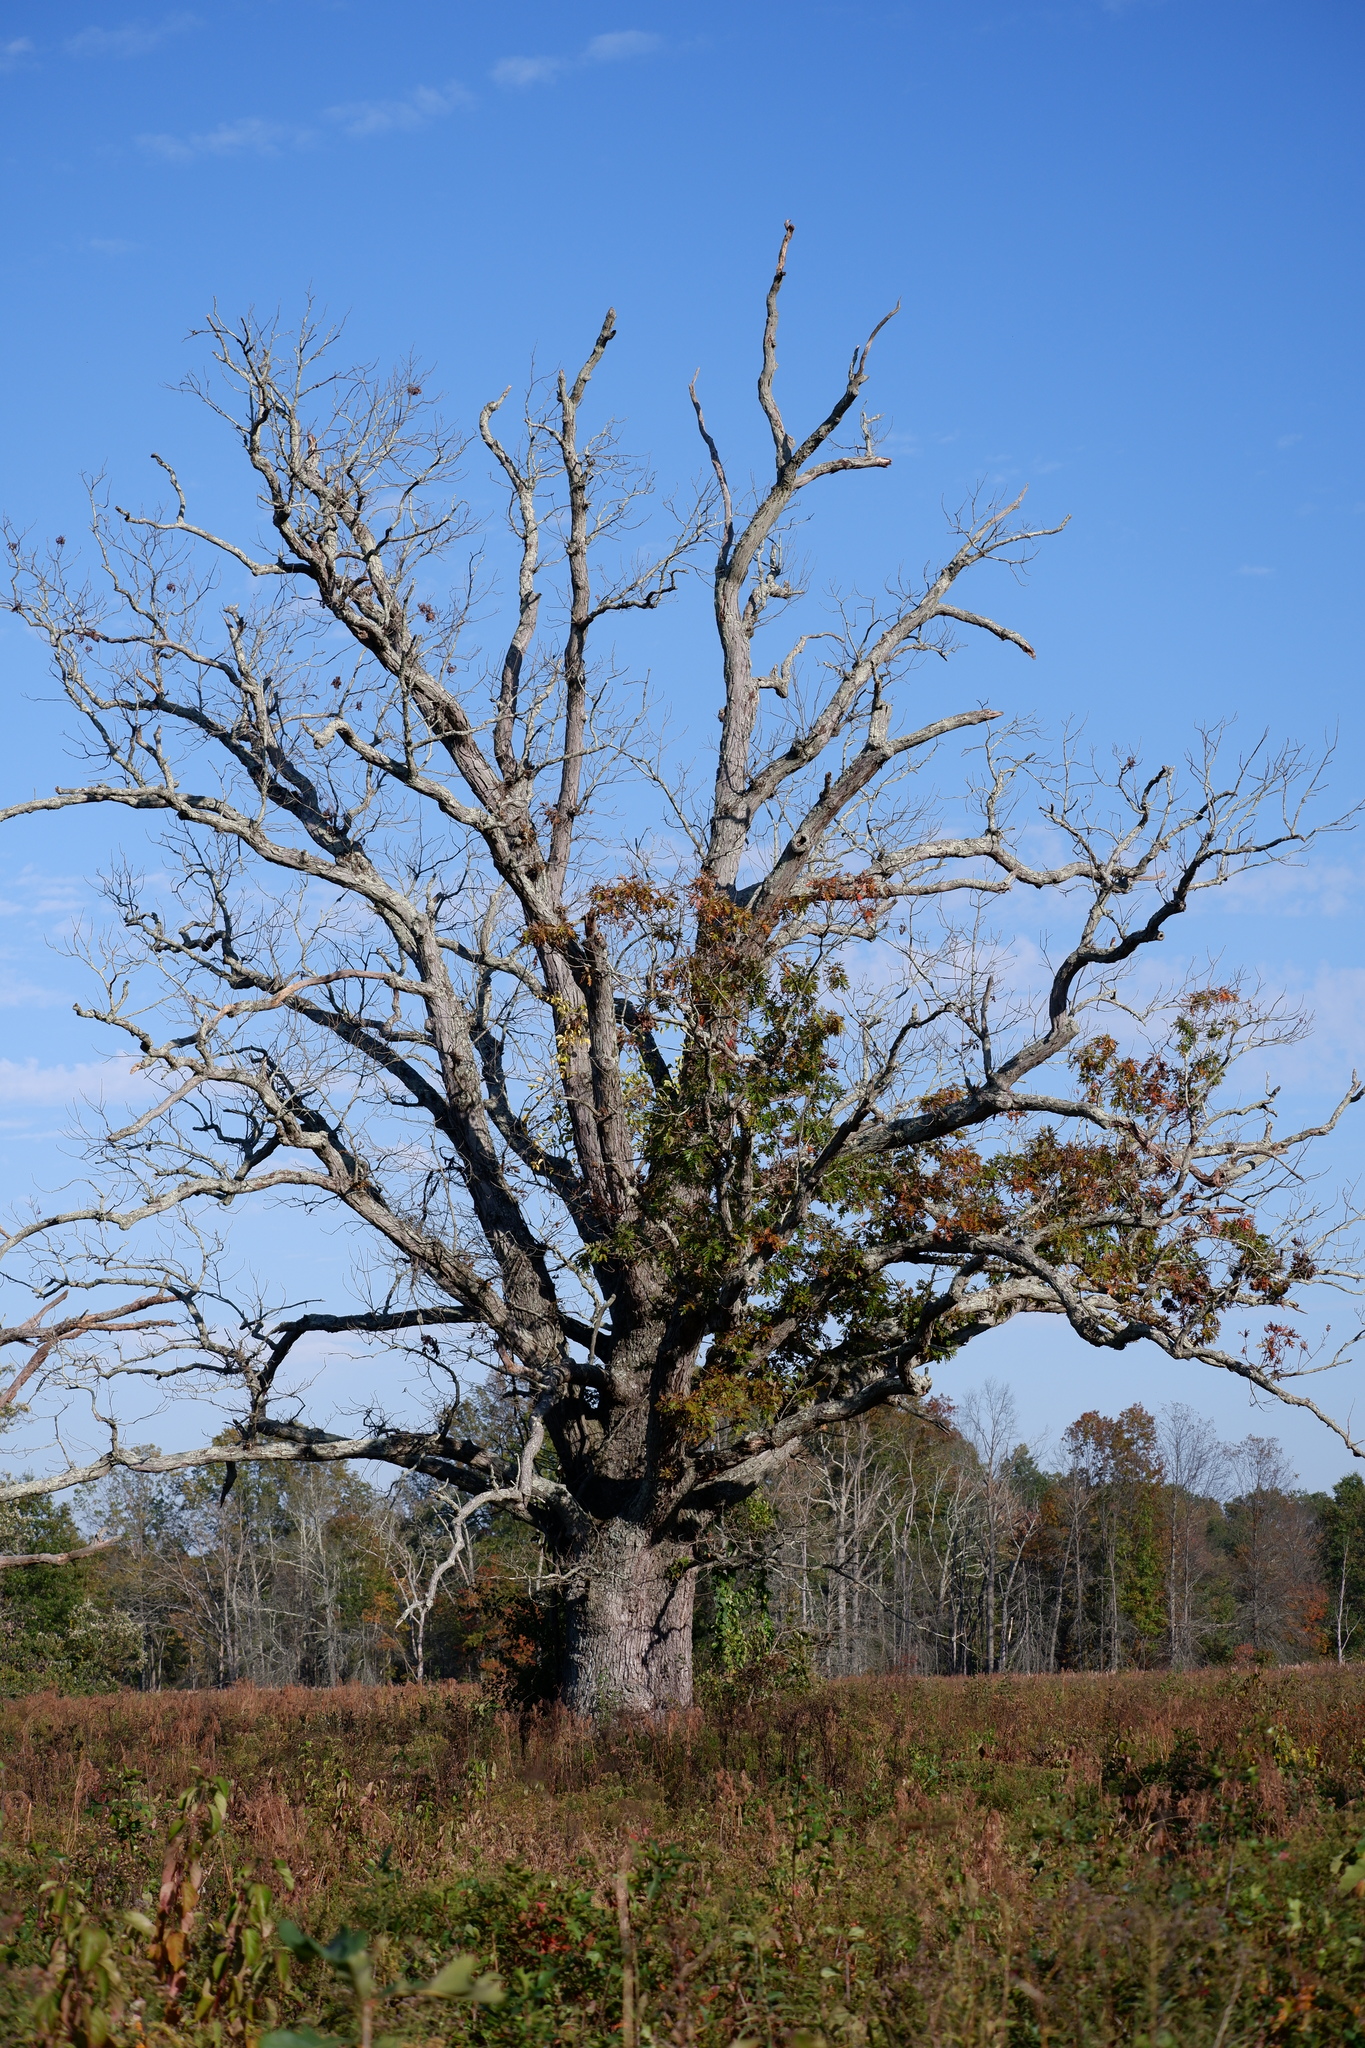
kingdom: Plantae
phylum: Tracheophyta
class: Magnoliopsida
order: Fagales
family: Fagaceae
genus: Quercus
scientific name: Quercus alba
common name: White oak
